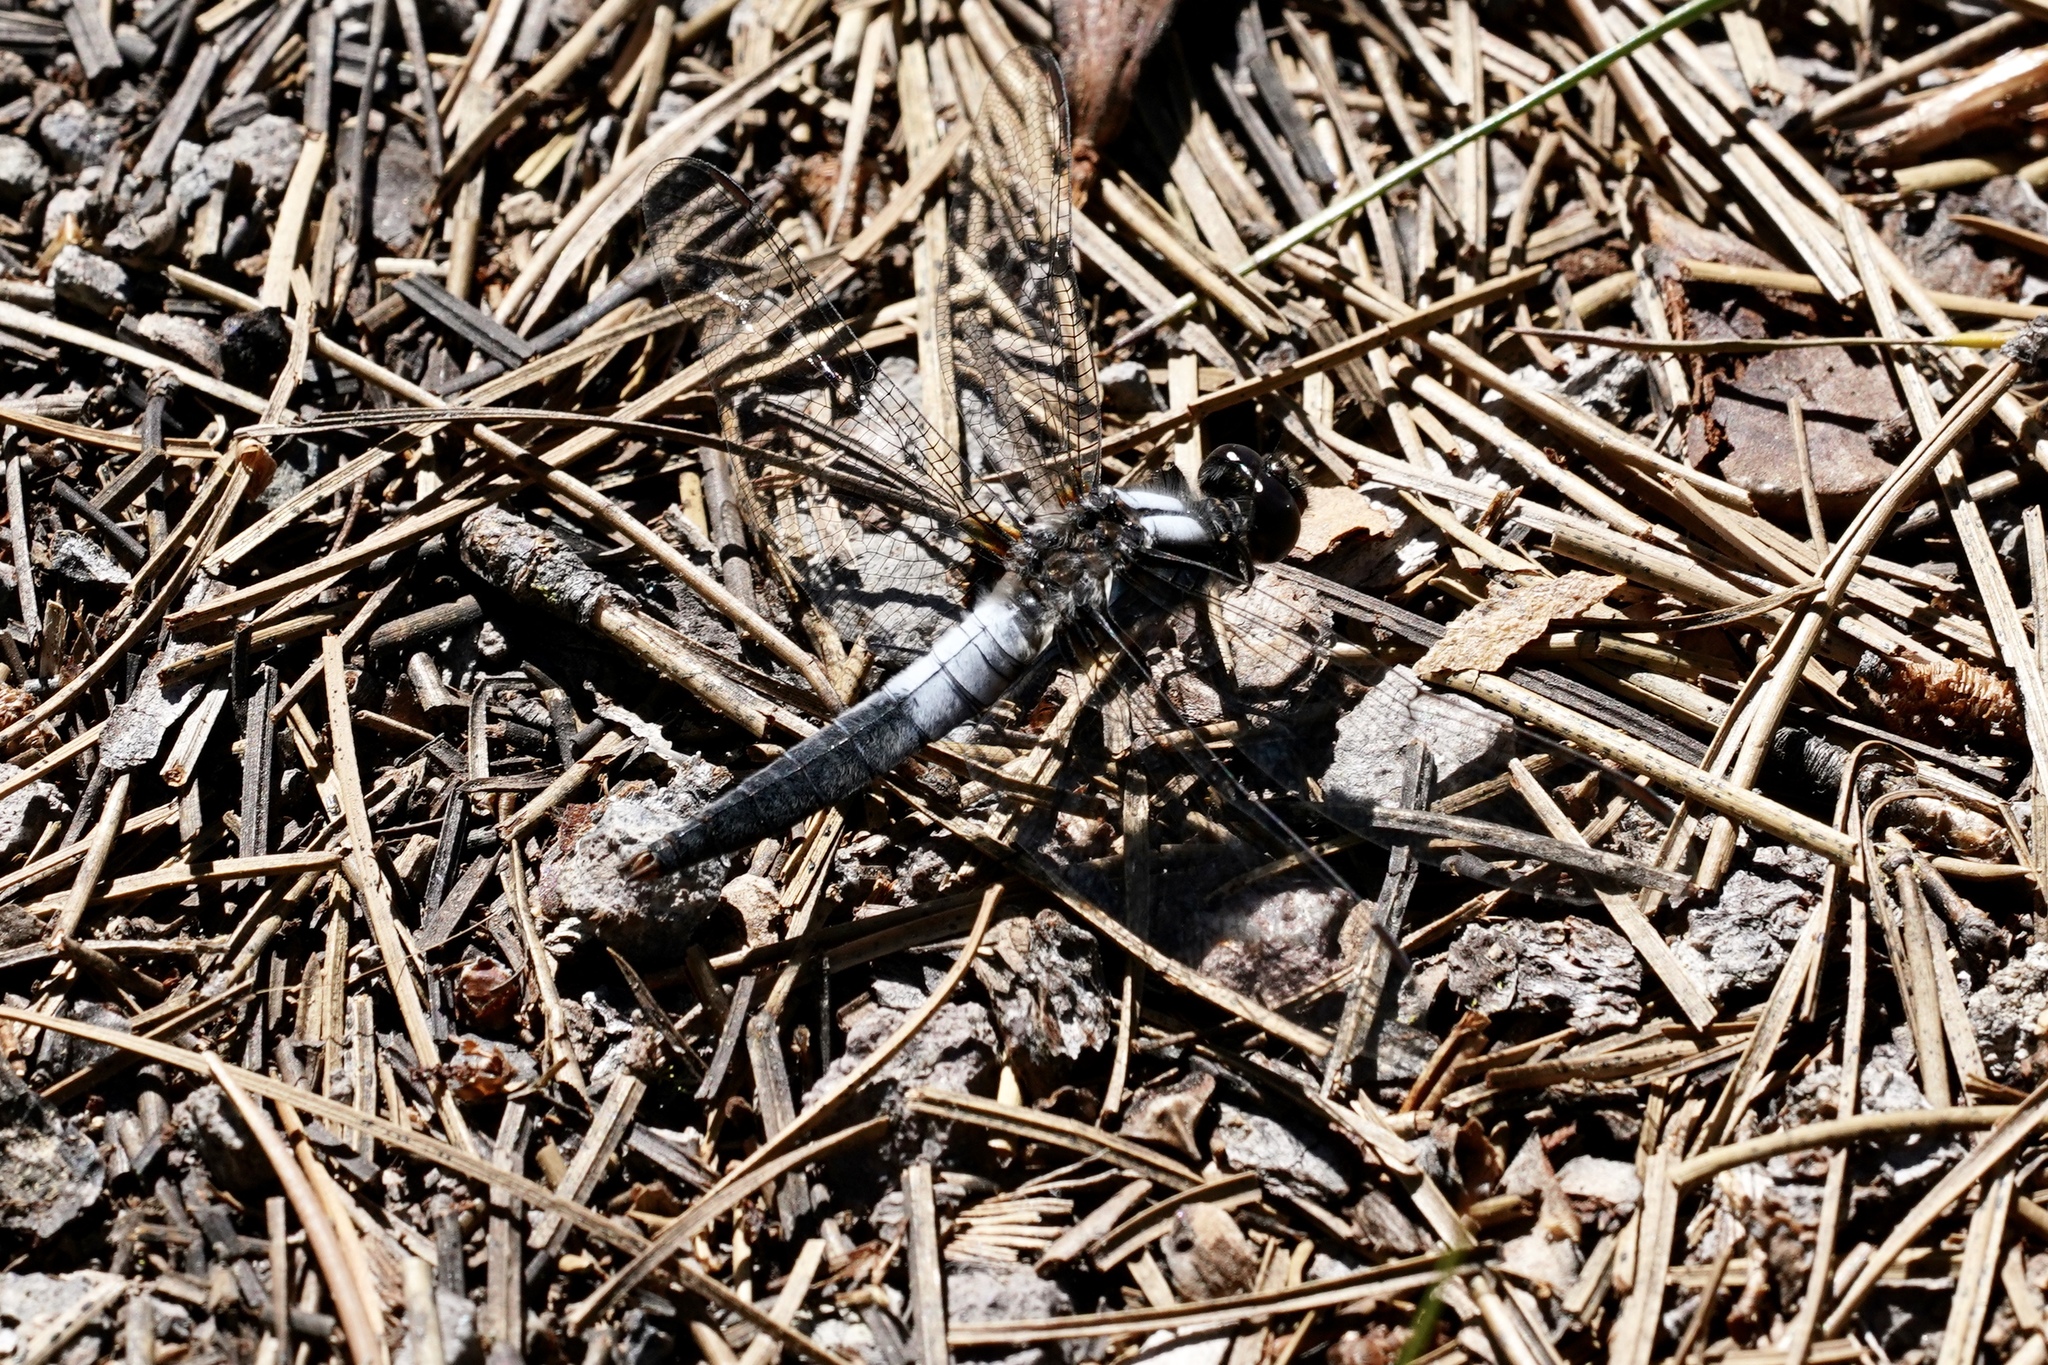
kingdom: Animalia
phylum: Arthropoda
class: Insecta
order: Odonata
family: Libellulidae
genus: Ladona
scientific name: Ladona julia
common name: Chalk-fronted corporal
